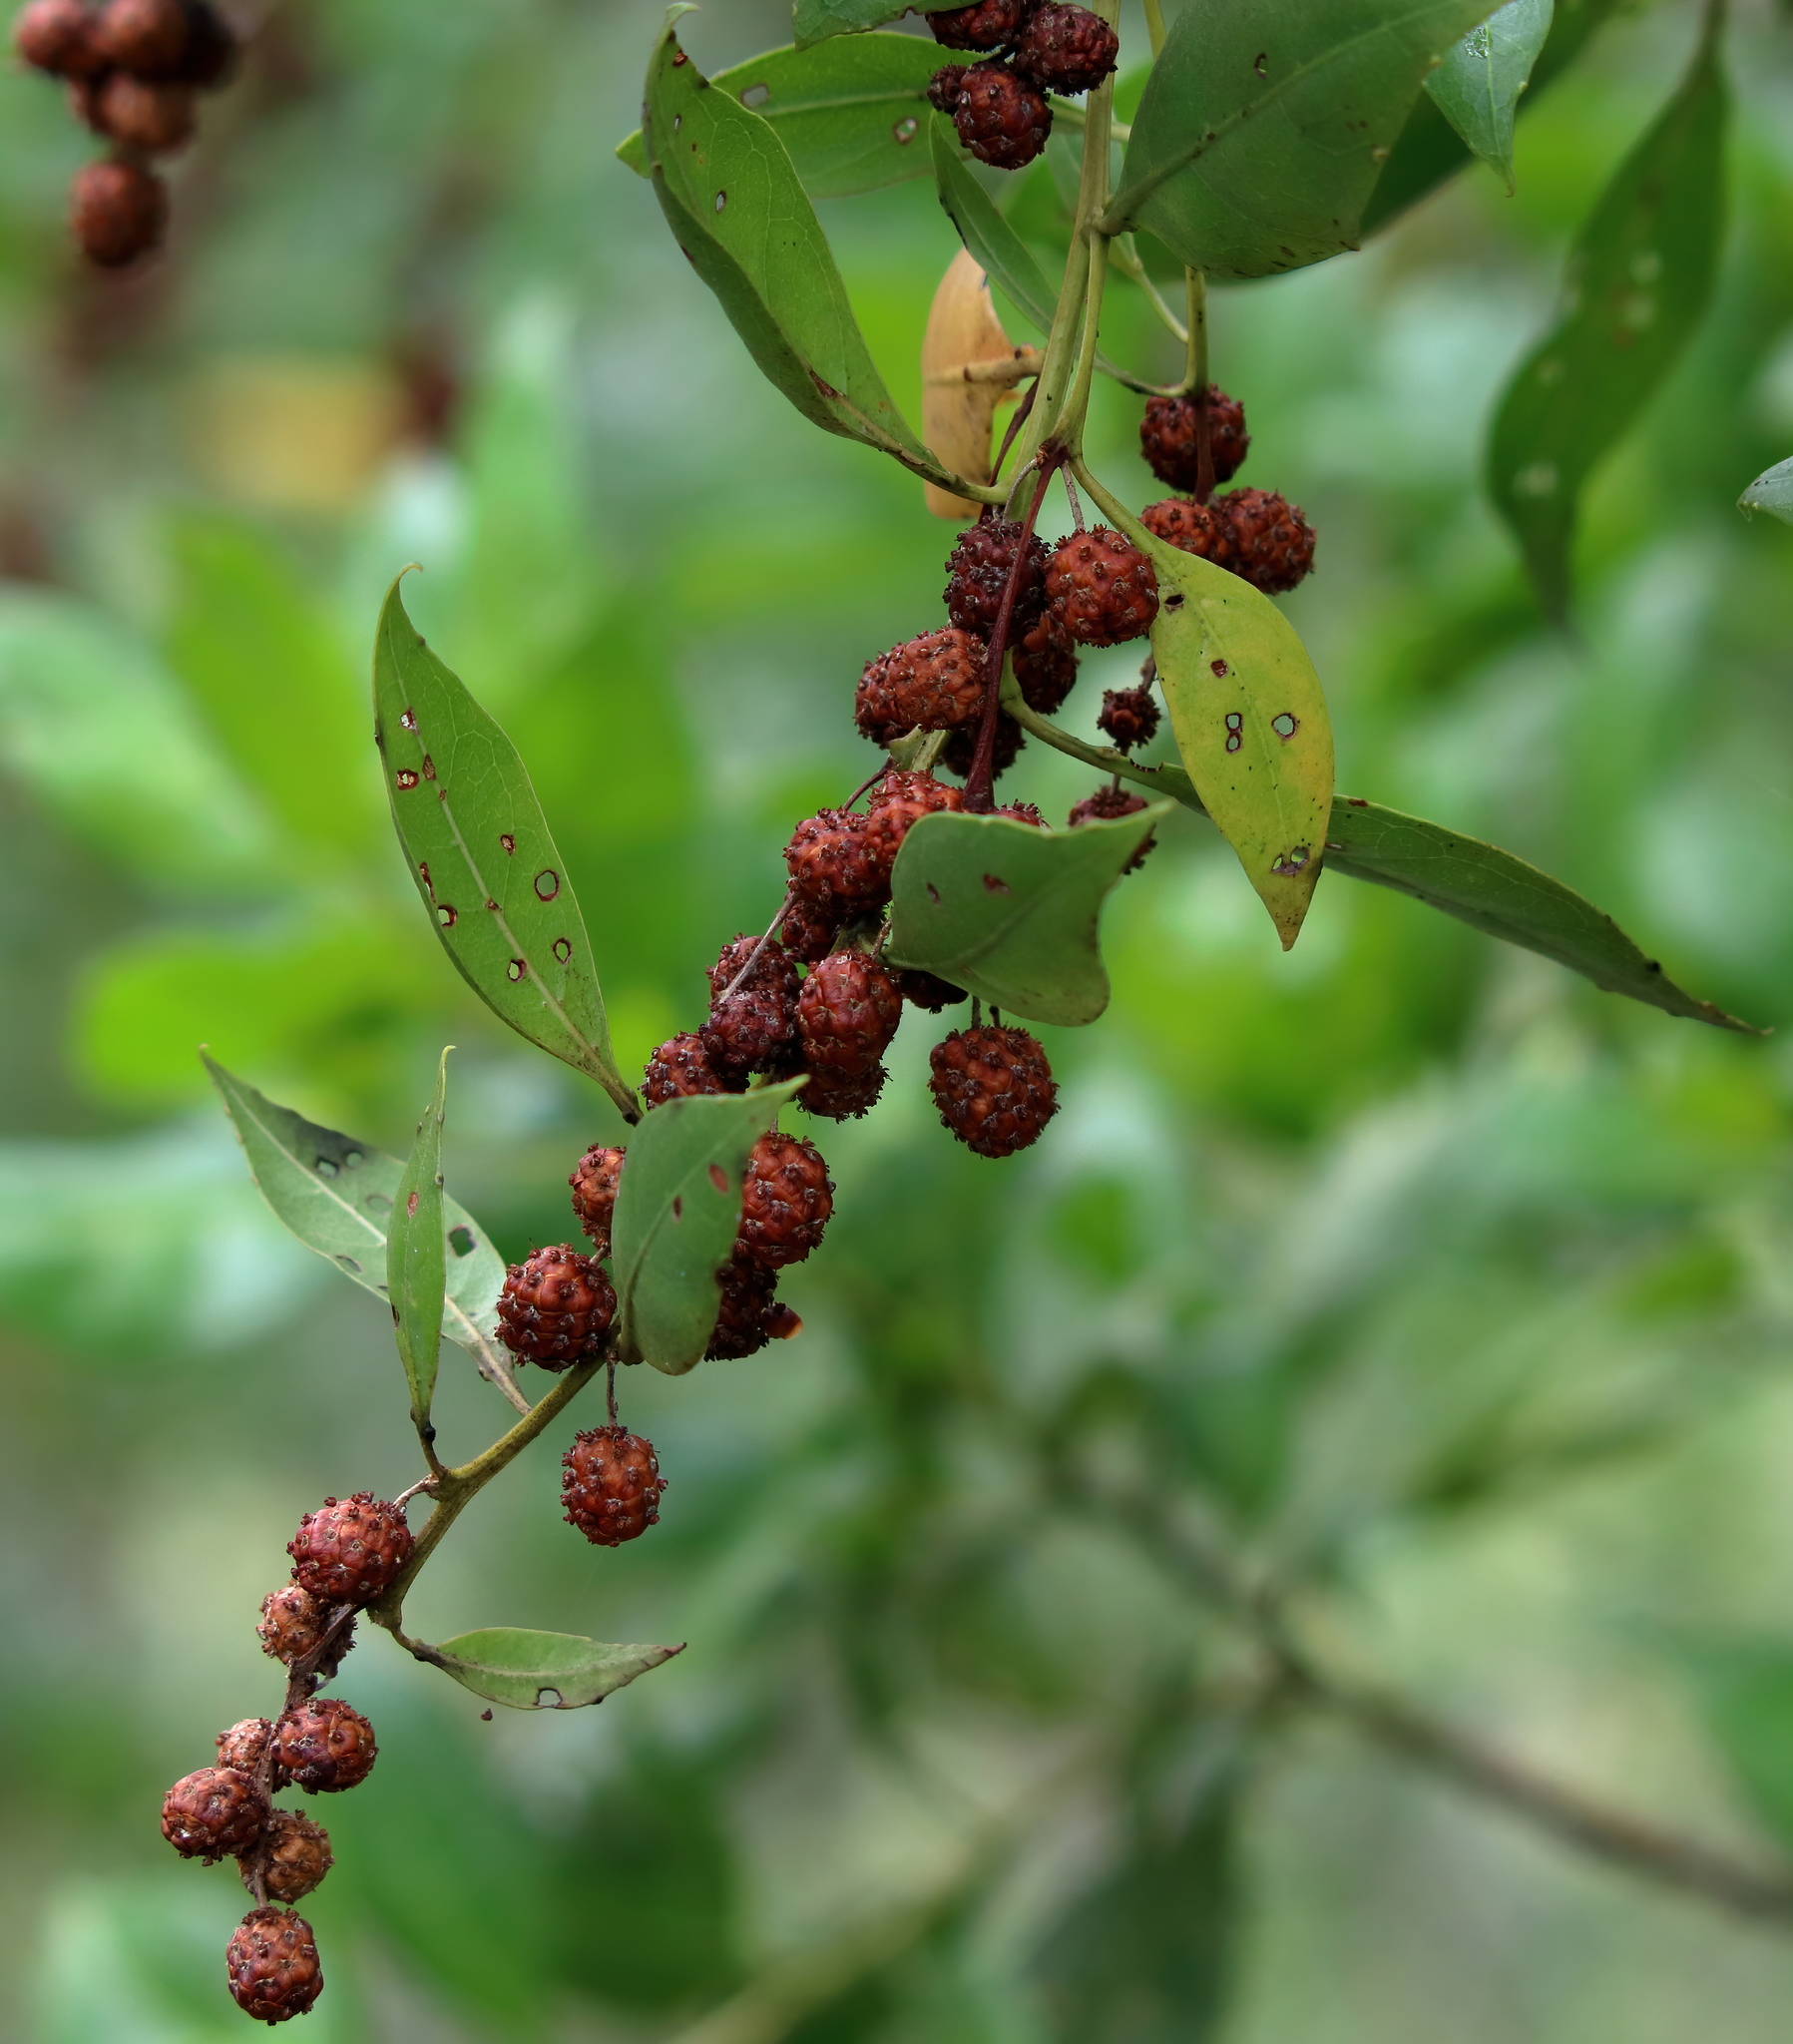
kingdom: Plantae
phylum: Tracheophyta
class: Magnoliopsida
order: Myrtales
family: Combretaceae
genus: Conocarpus
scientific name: Conocarpus erectus
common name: Button mangrove
